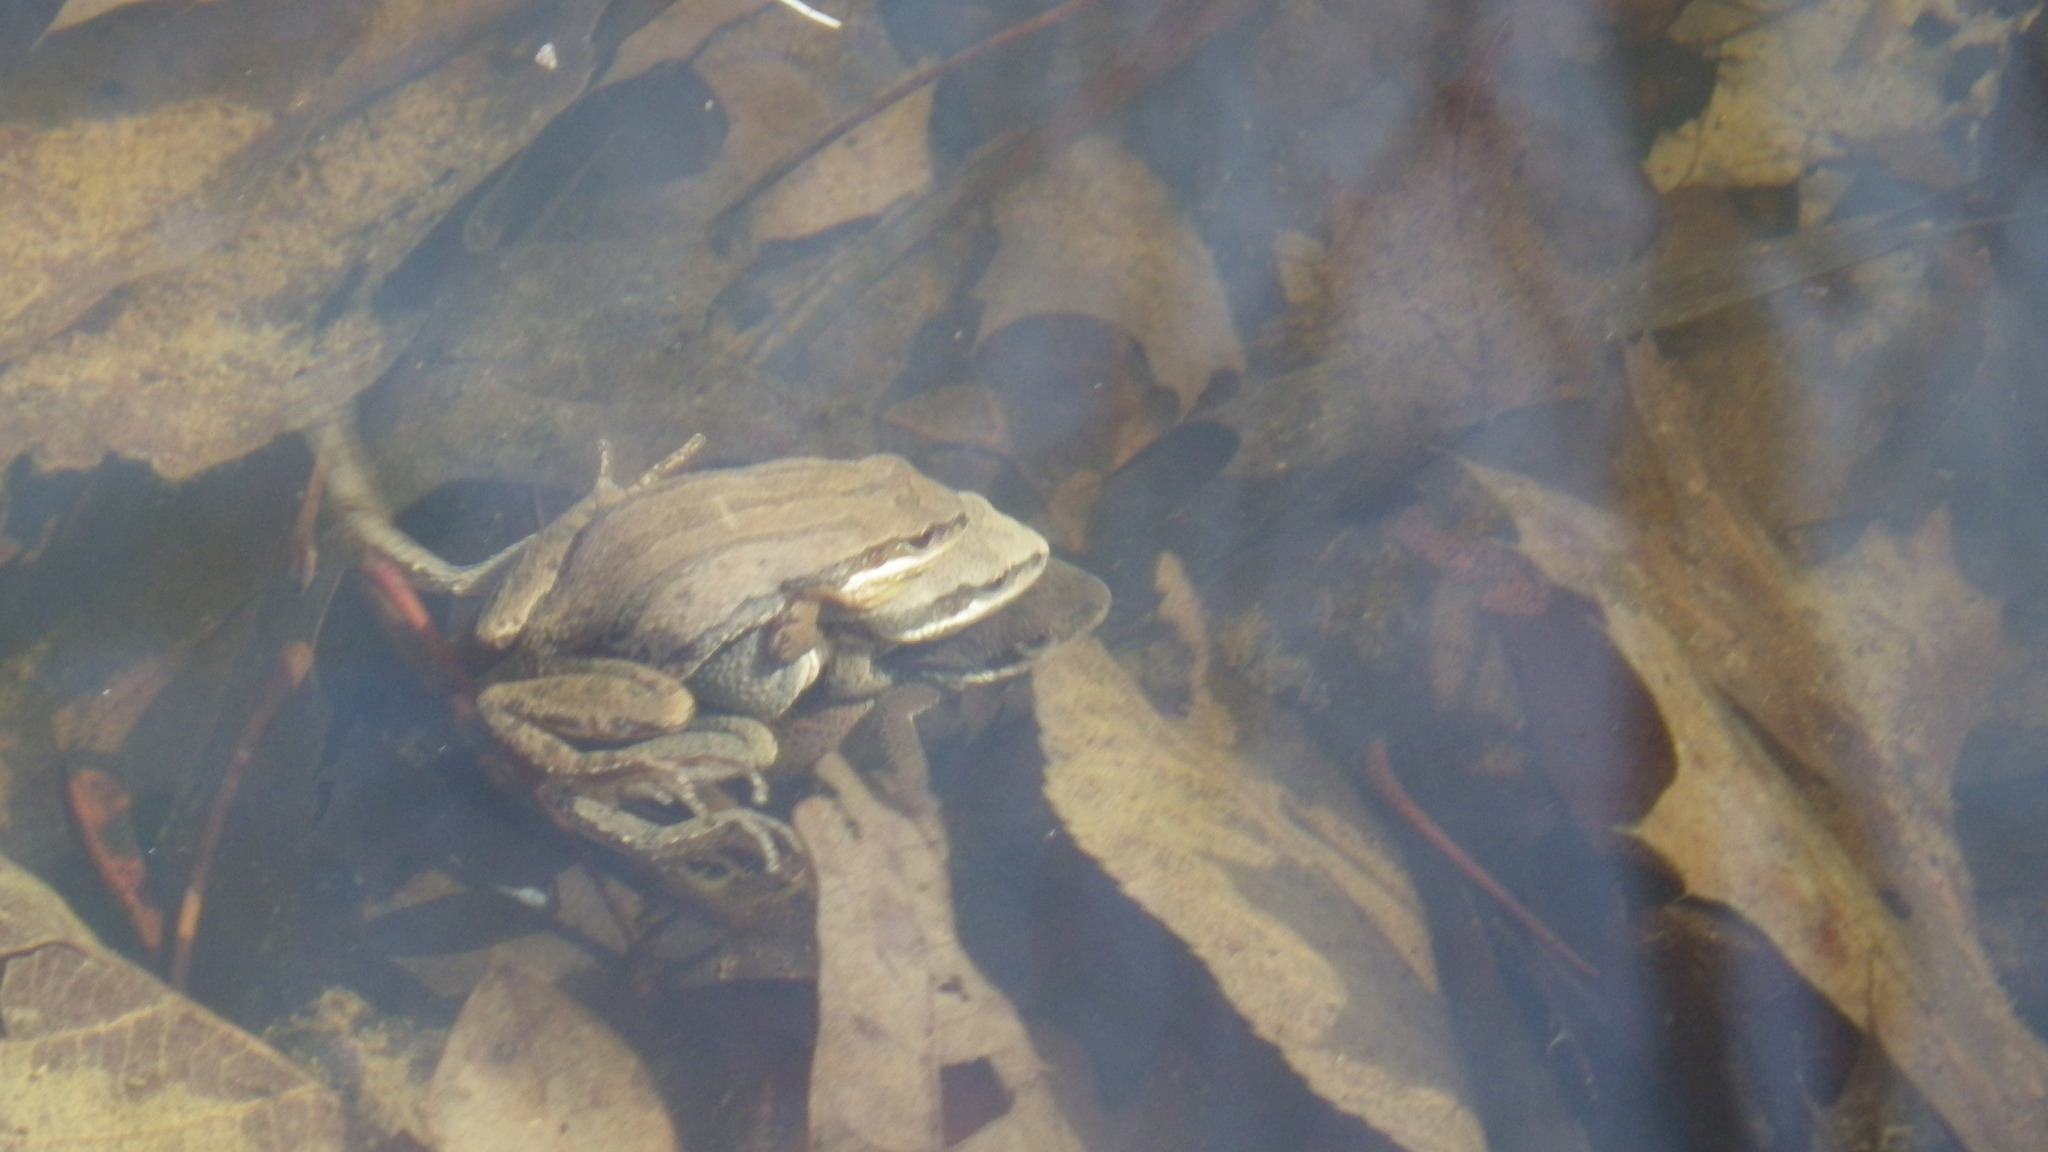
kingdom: Animalia
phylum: Chordata
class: Amphibia
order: Anura
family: Hylidae
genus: Pseudacris
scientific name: Pseudacris triseriata
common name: Western chorus frog
